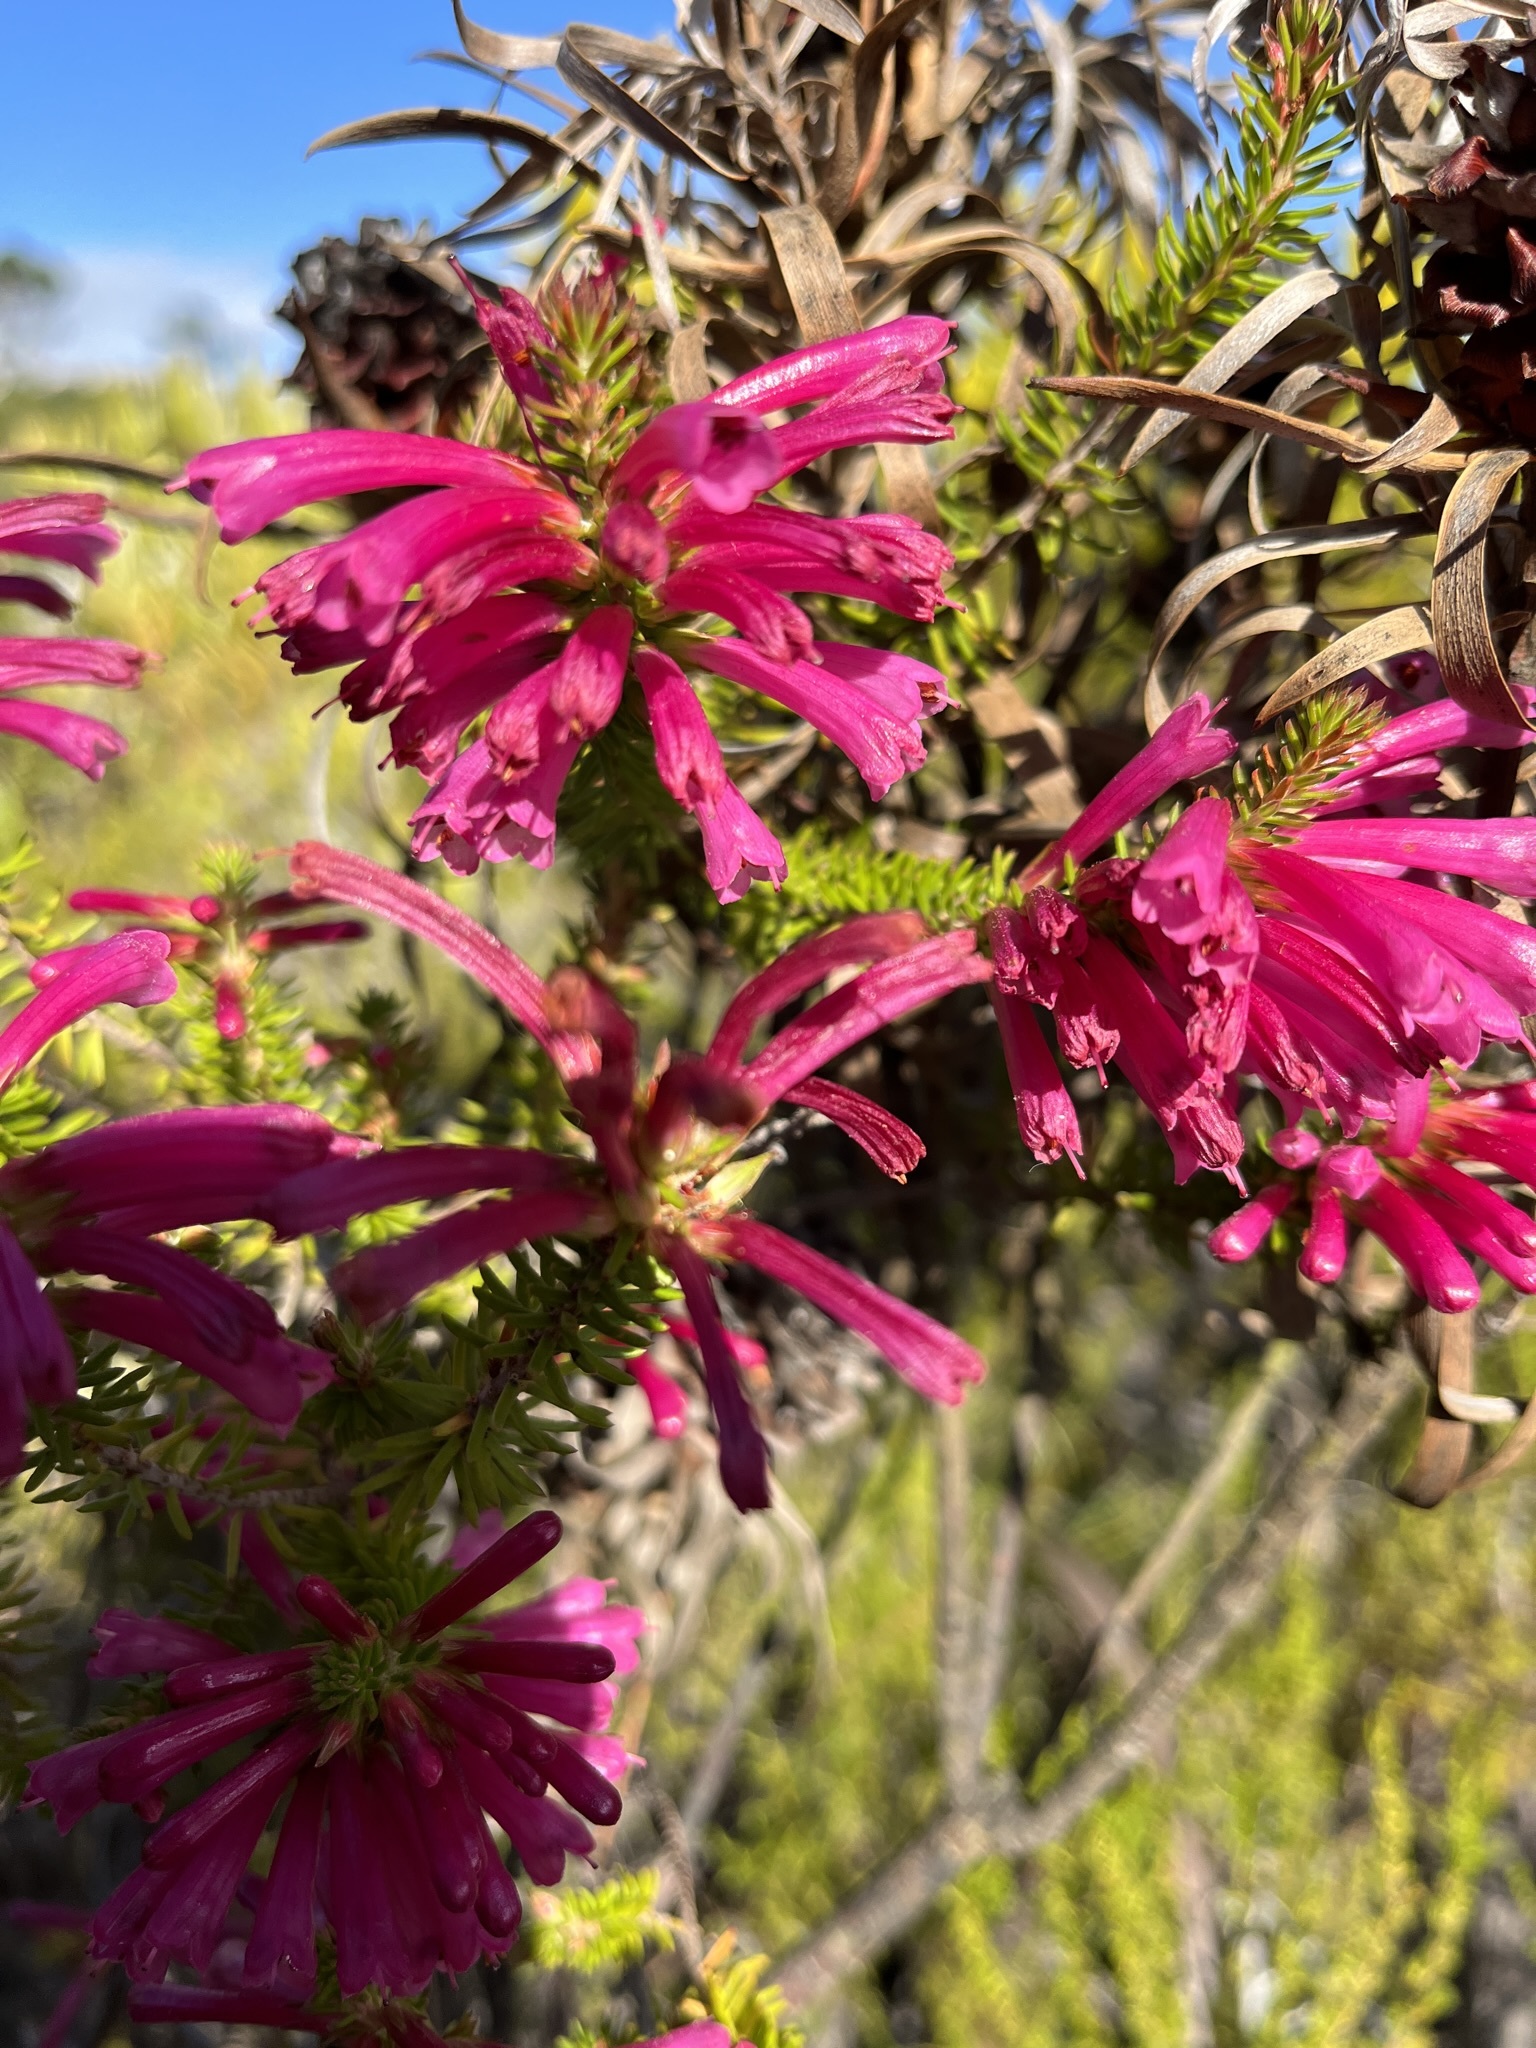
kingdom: Plantae
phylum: Tracheophyta
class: Magnoliopsida
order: Ericales
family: Ericaceae
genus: Erica
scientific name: Erica abietina
